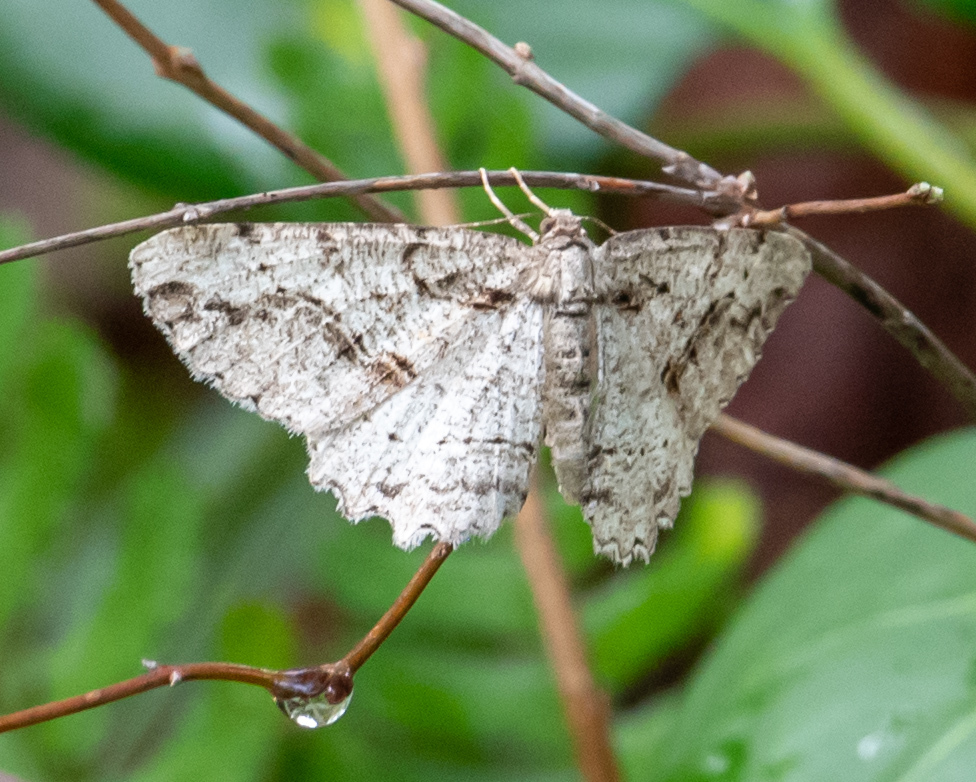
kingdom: Animalia
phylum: Arthropoda
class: Insecta
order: Lepidoptera
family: Geometridae
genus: Neoalcis
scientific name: Neoalcis californiaria
